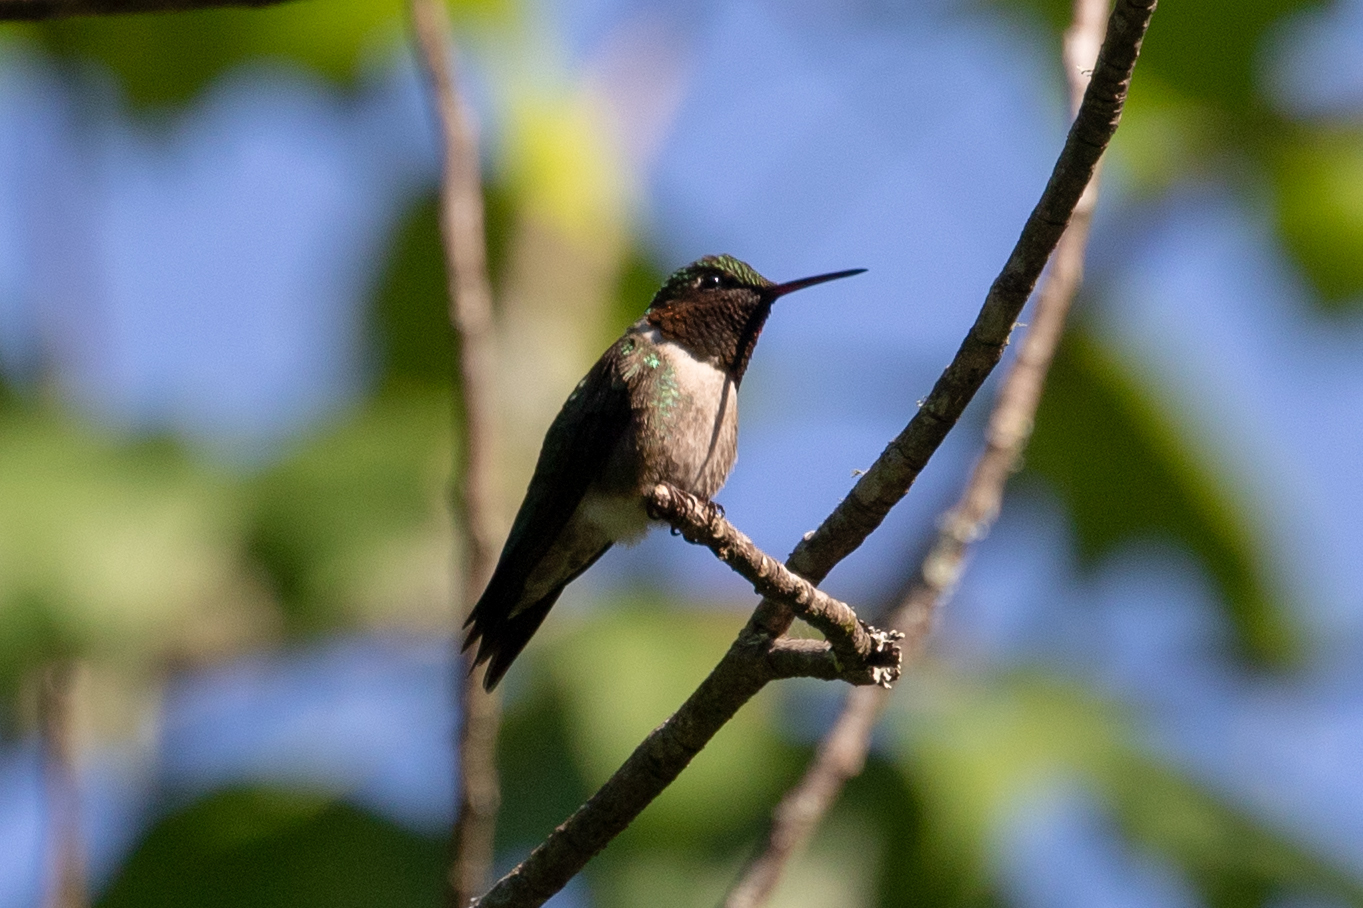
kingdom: Animalia
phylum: Chordata
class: Aves
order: Apodiformes
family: Trochilidae
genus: Archilochus
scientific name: Archilochus colubris
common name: Ruby-throated hummingbird
